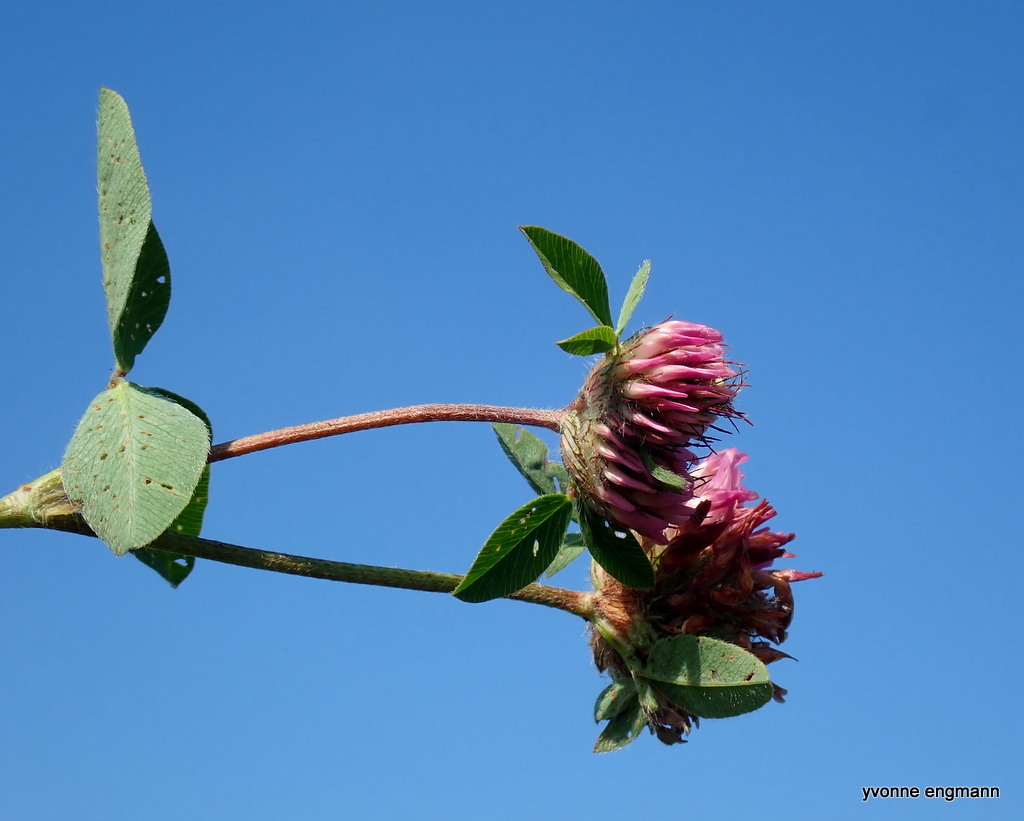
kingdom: Plantae
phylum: Tracheophyta
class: Magnoliopsida
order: Fabales
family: Fabaceae
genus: Trifolium
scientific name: Trifolium pratense
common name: Red clover
